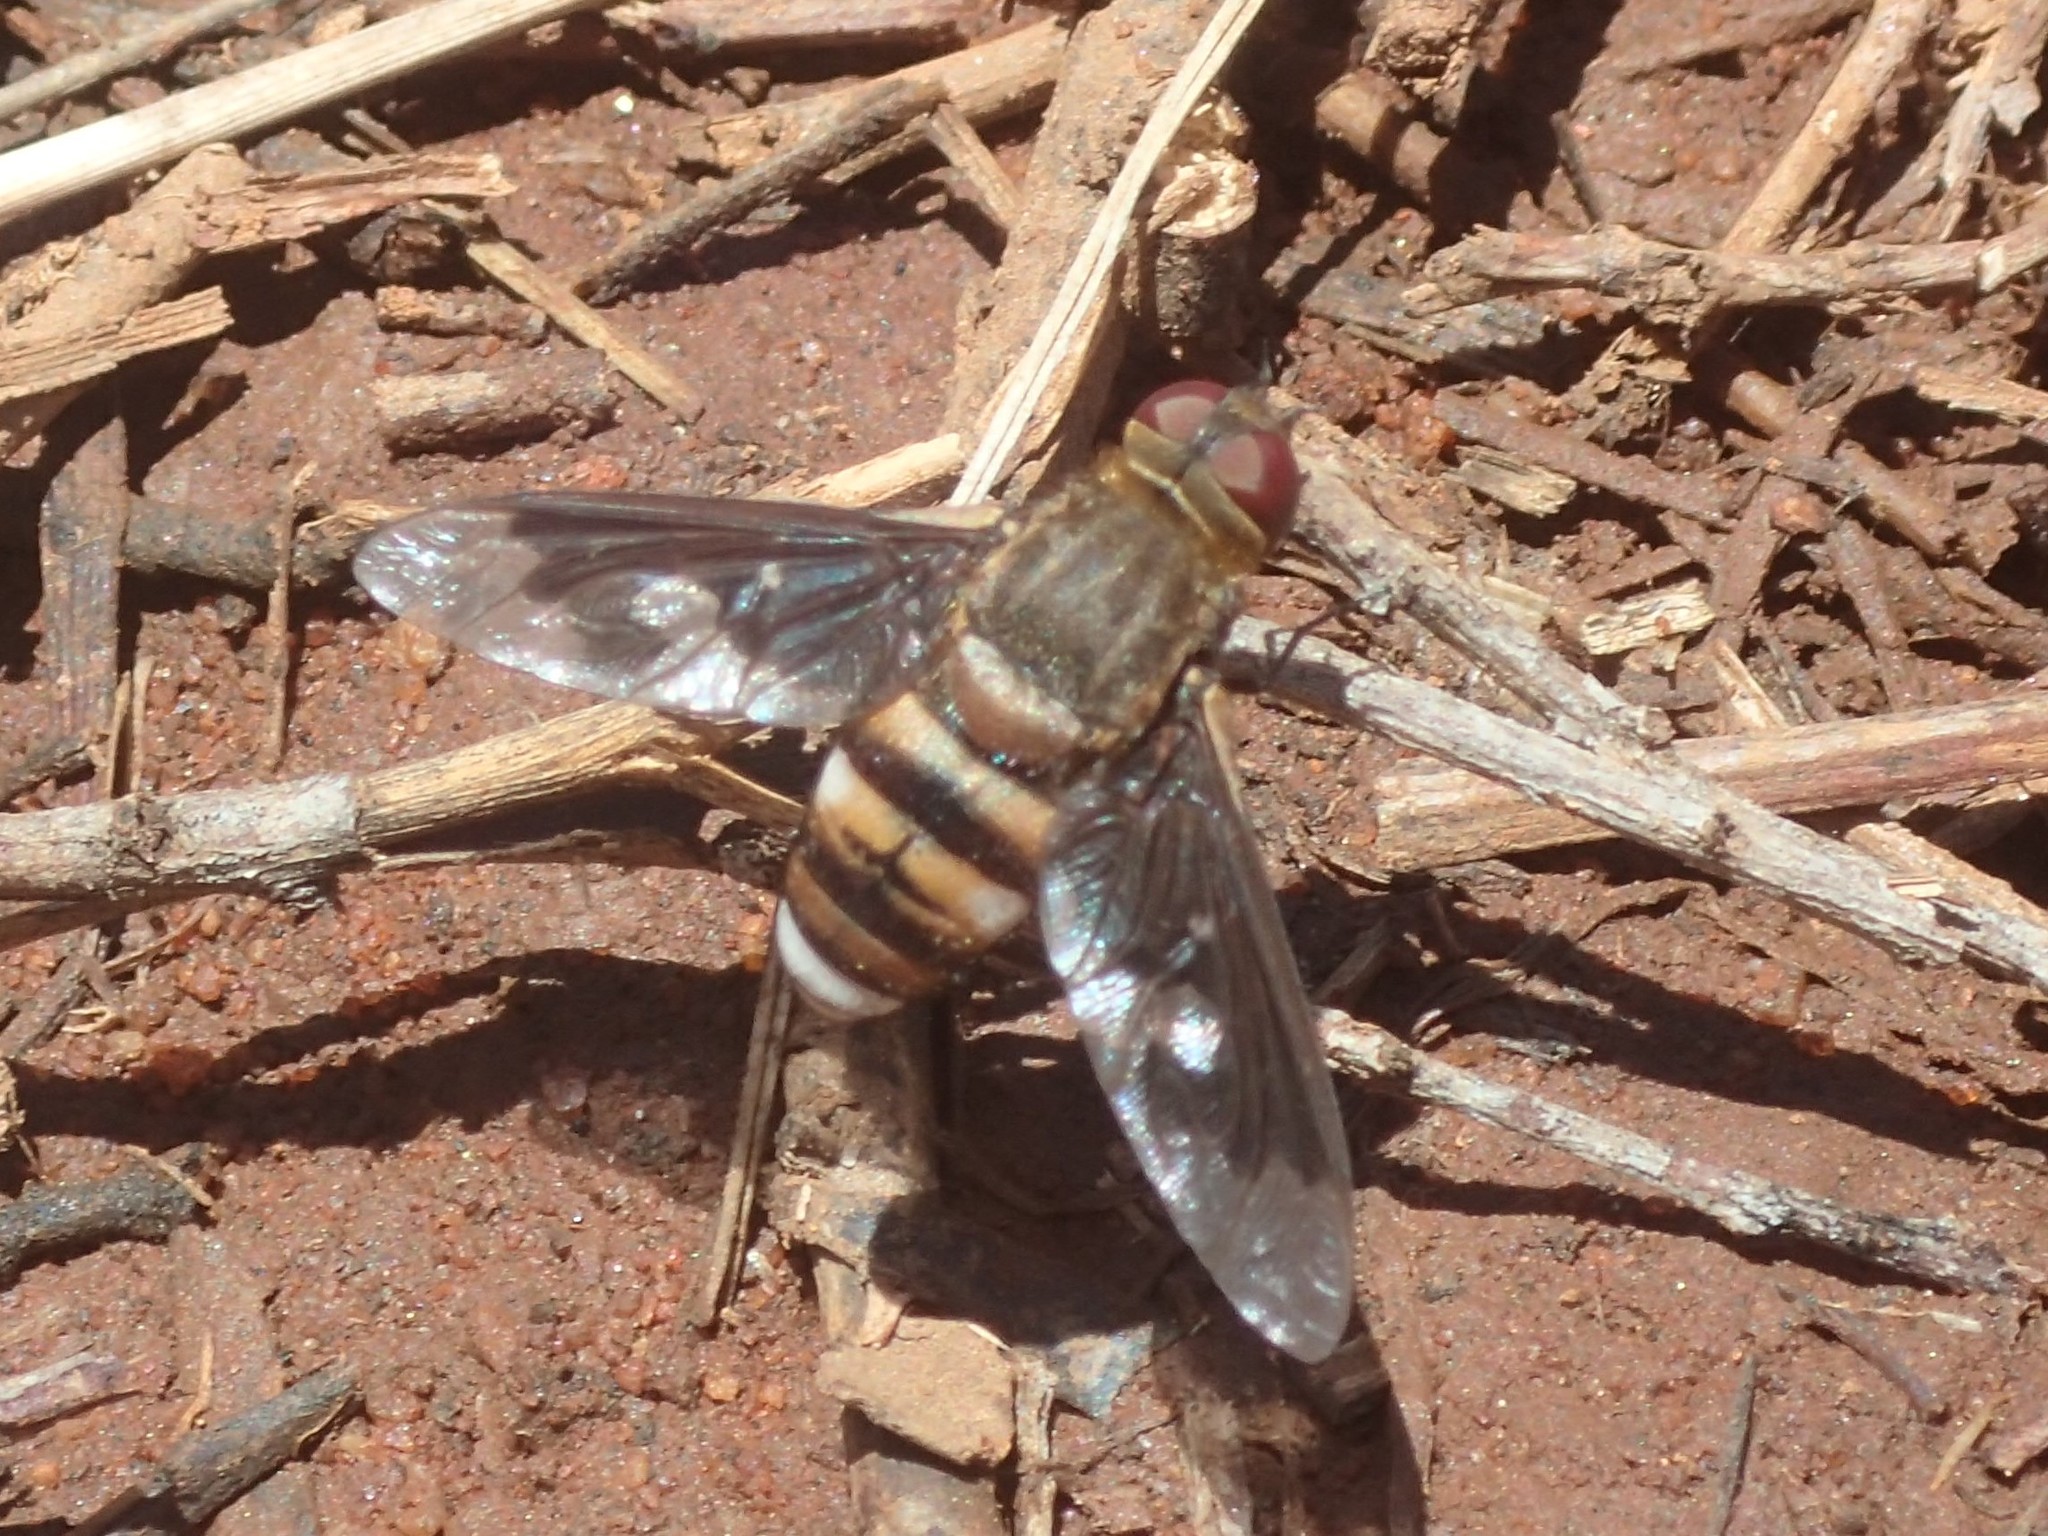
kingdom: Animalia
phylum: Arthropoda
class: Insecta
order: Diptera
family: Bombyliidae
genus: Wurda
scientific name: Wurda emu
